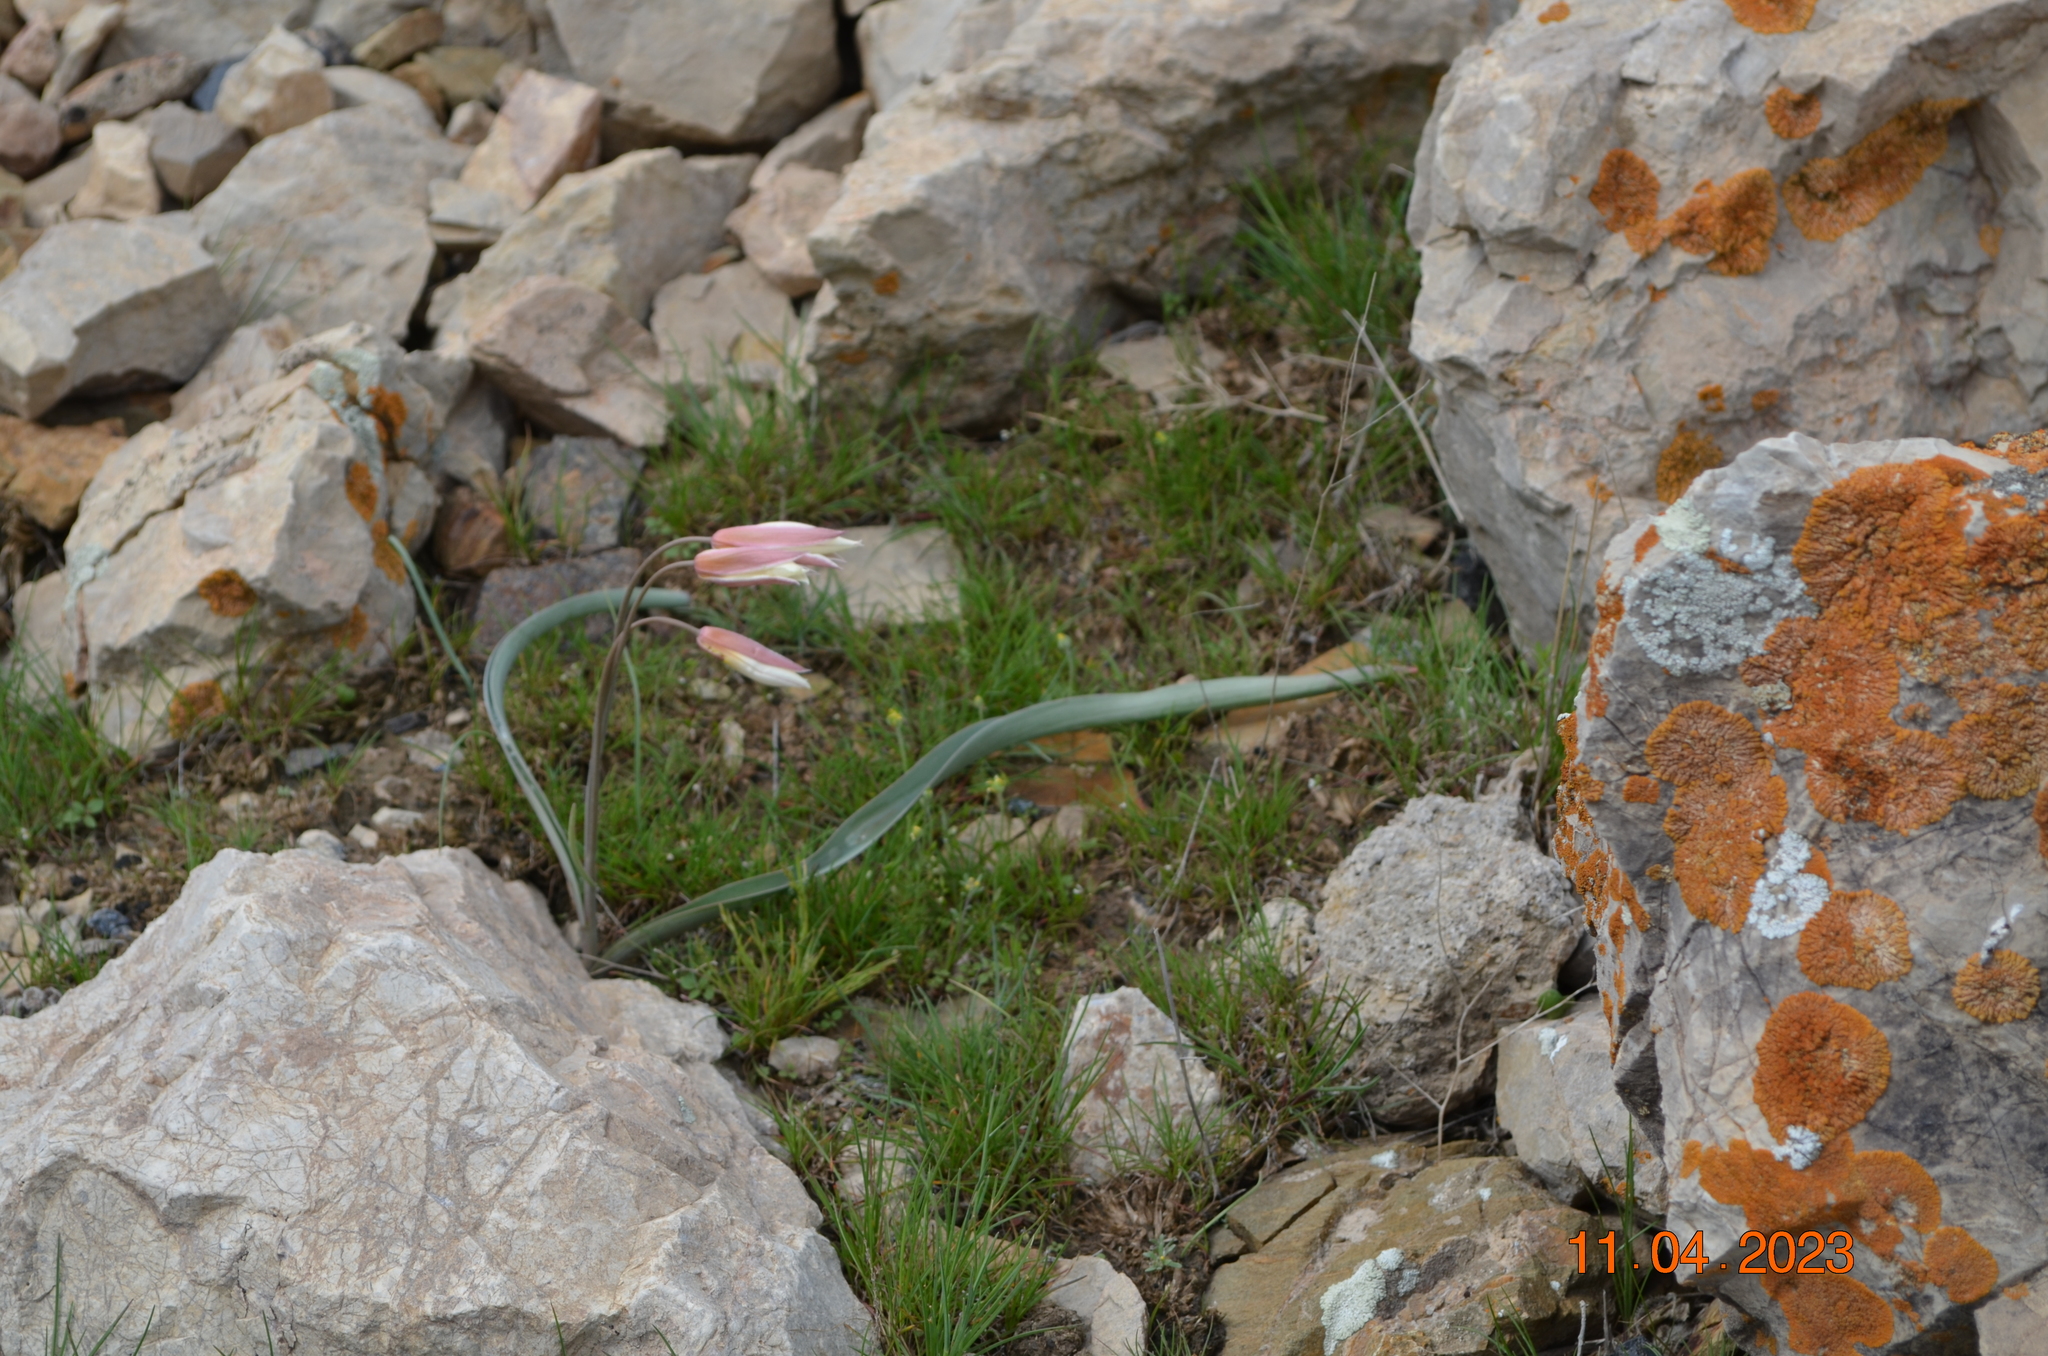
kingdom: Plantae
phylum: Tracheophyta
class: Liliopsida
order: Liliales
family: Liliaceae
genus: Tulipa
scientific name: Tulipa bifloriformis
